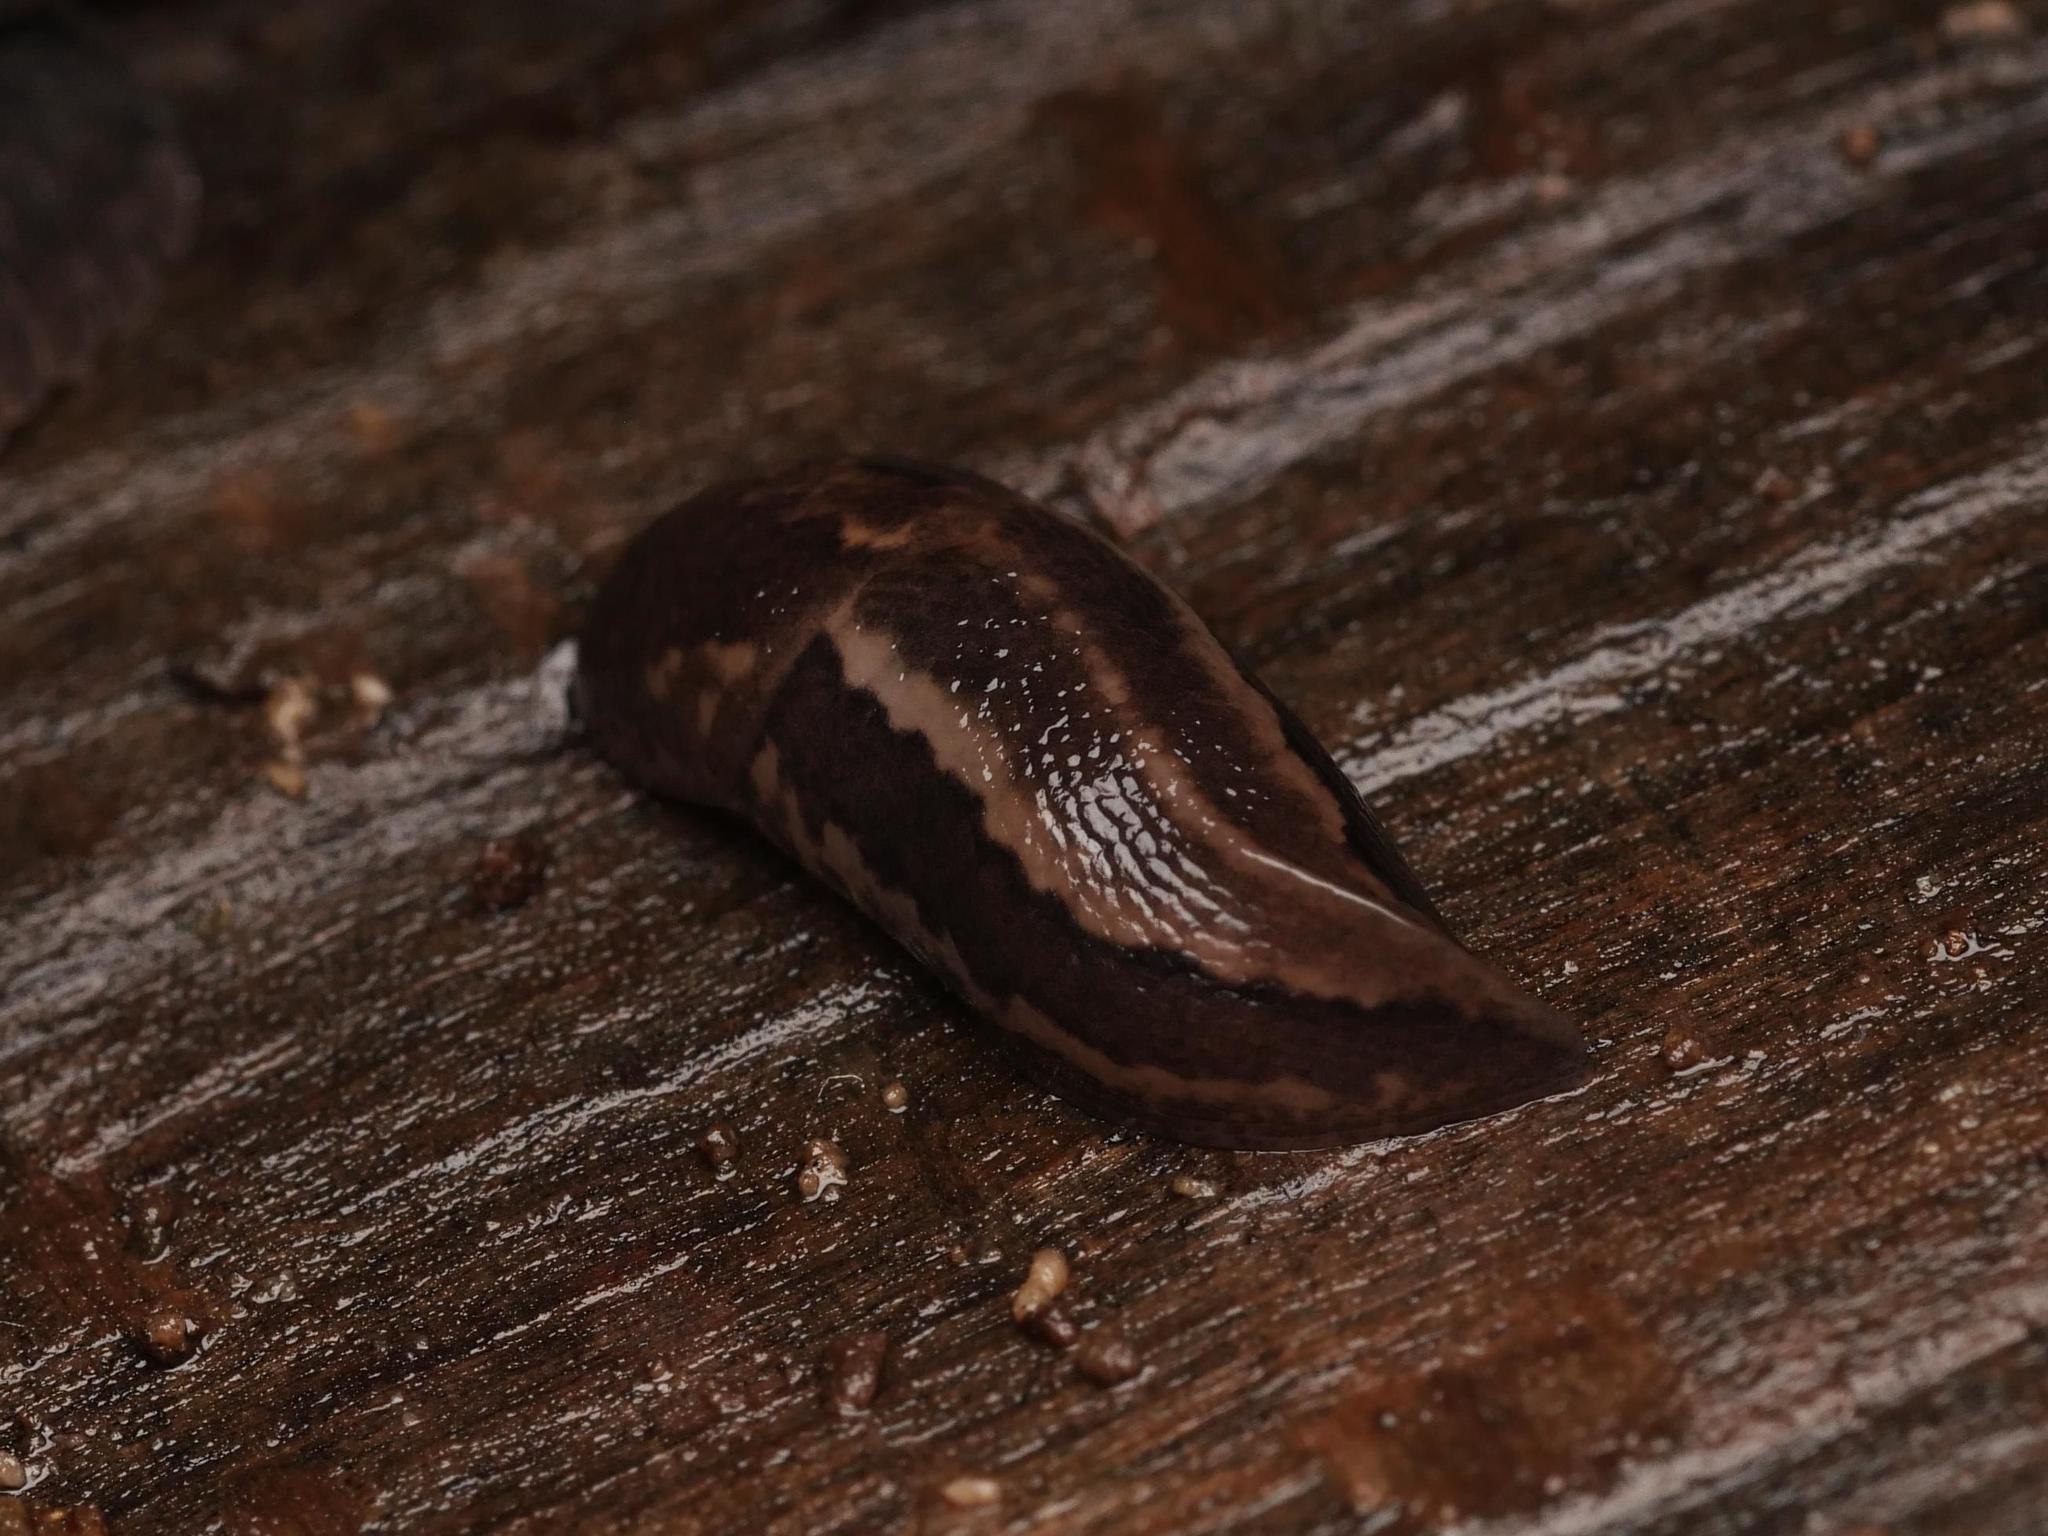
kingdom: Animalia
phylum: Mollusca
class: Gastropoda
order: Stylommatophora
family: Limacidae
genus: Limax
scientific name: Limax maximus
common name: Great grey slug
